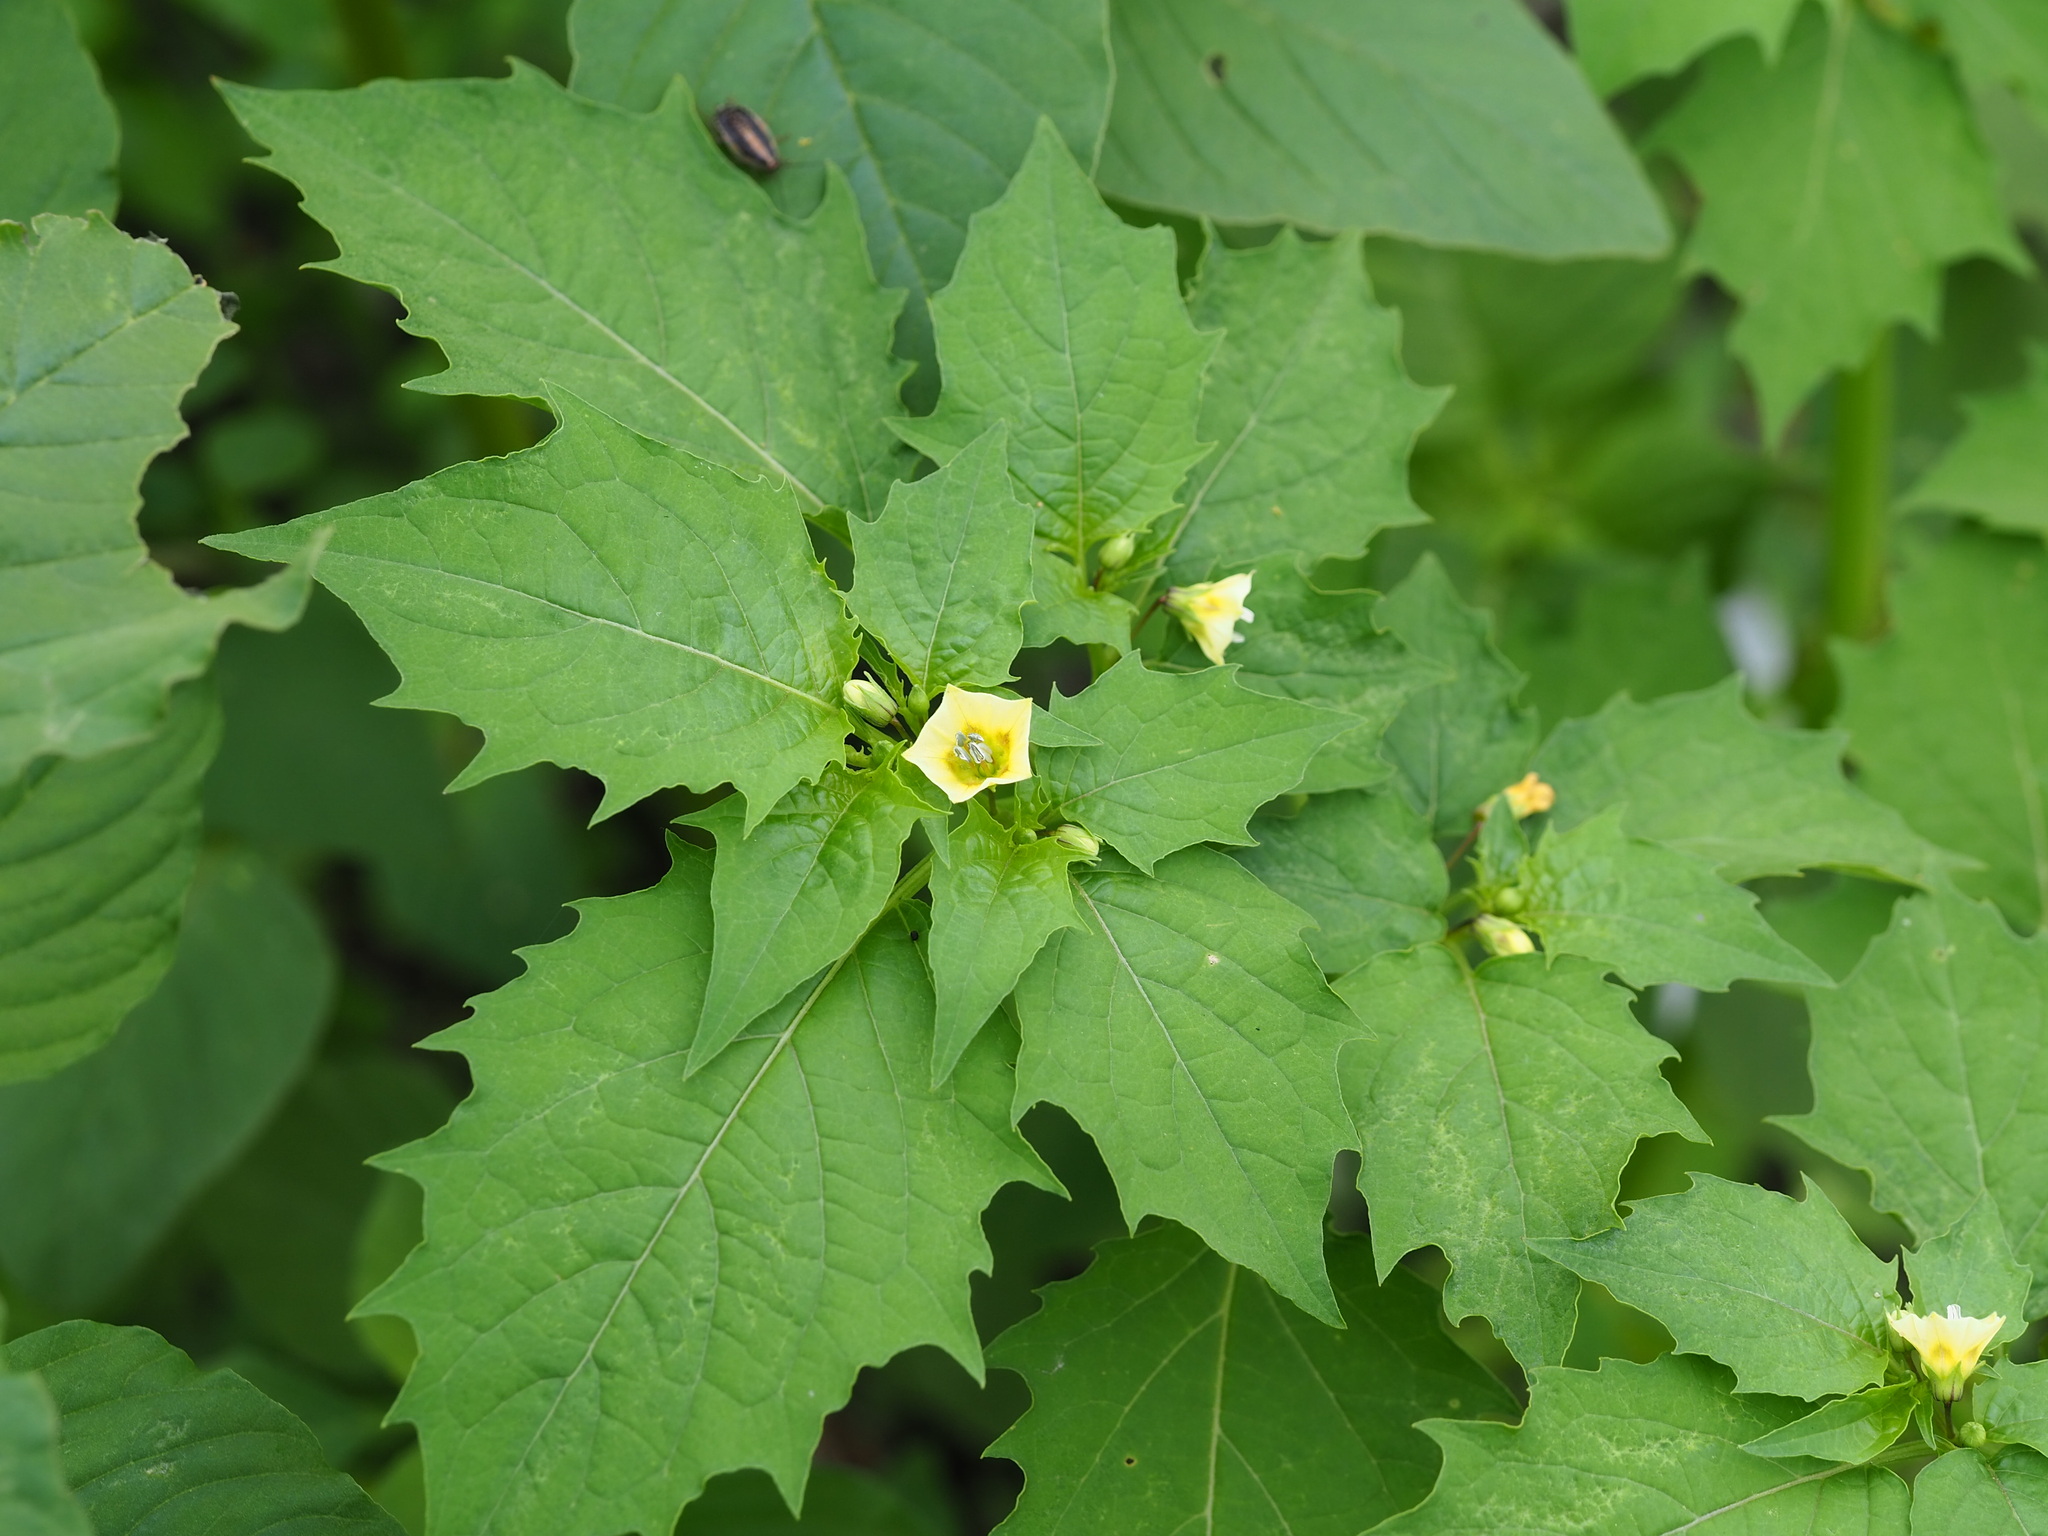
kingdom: Plantae
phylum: Tracheophyta
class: Magnoliopsida
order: Solanales
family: Solanaceae
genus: Physalis
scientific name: Physalis angulata
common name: Angular winter-cherry
